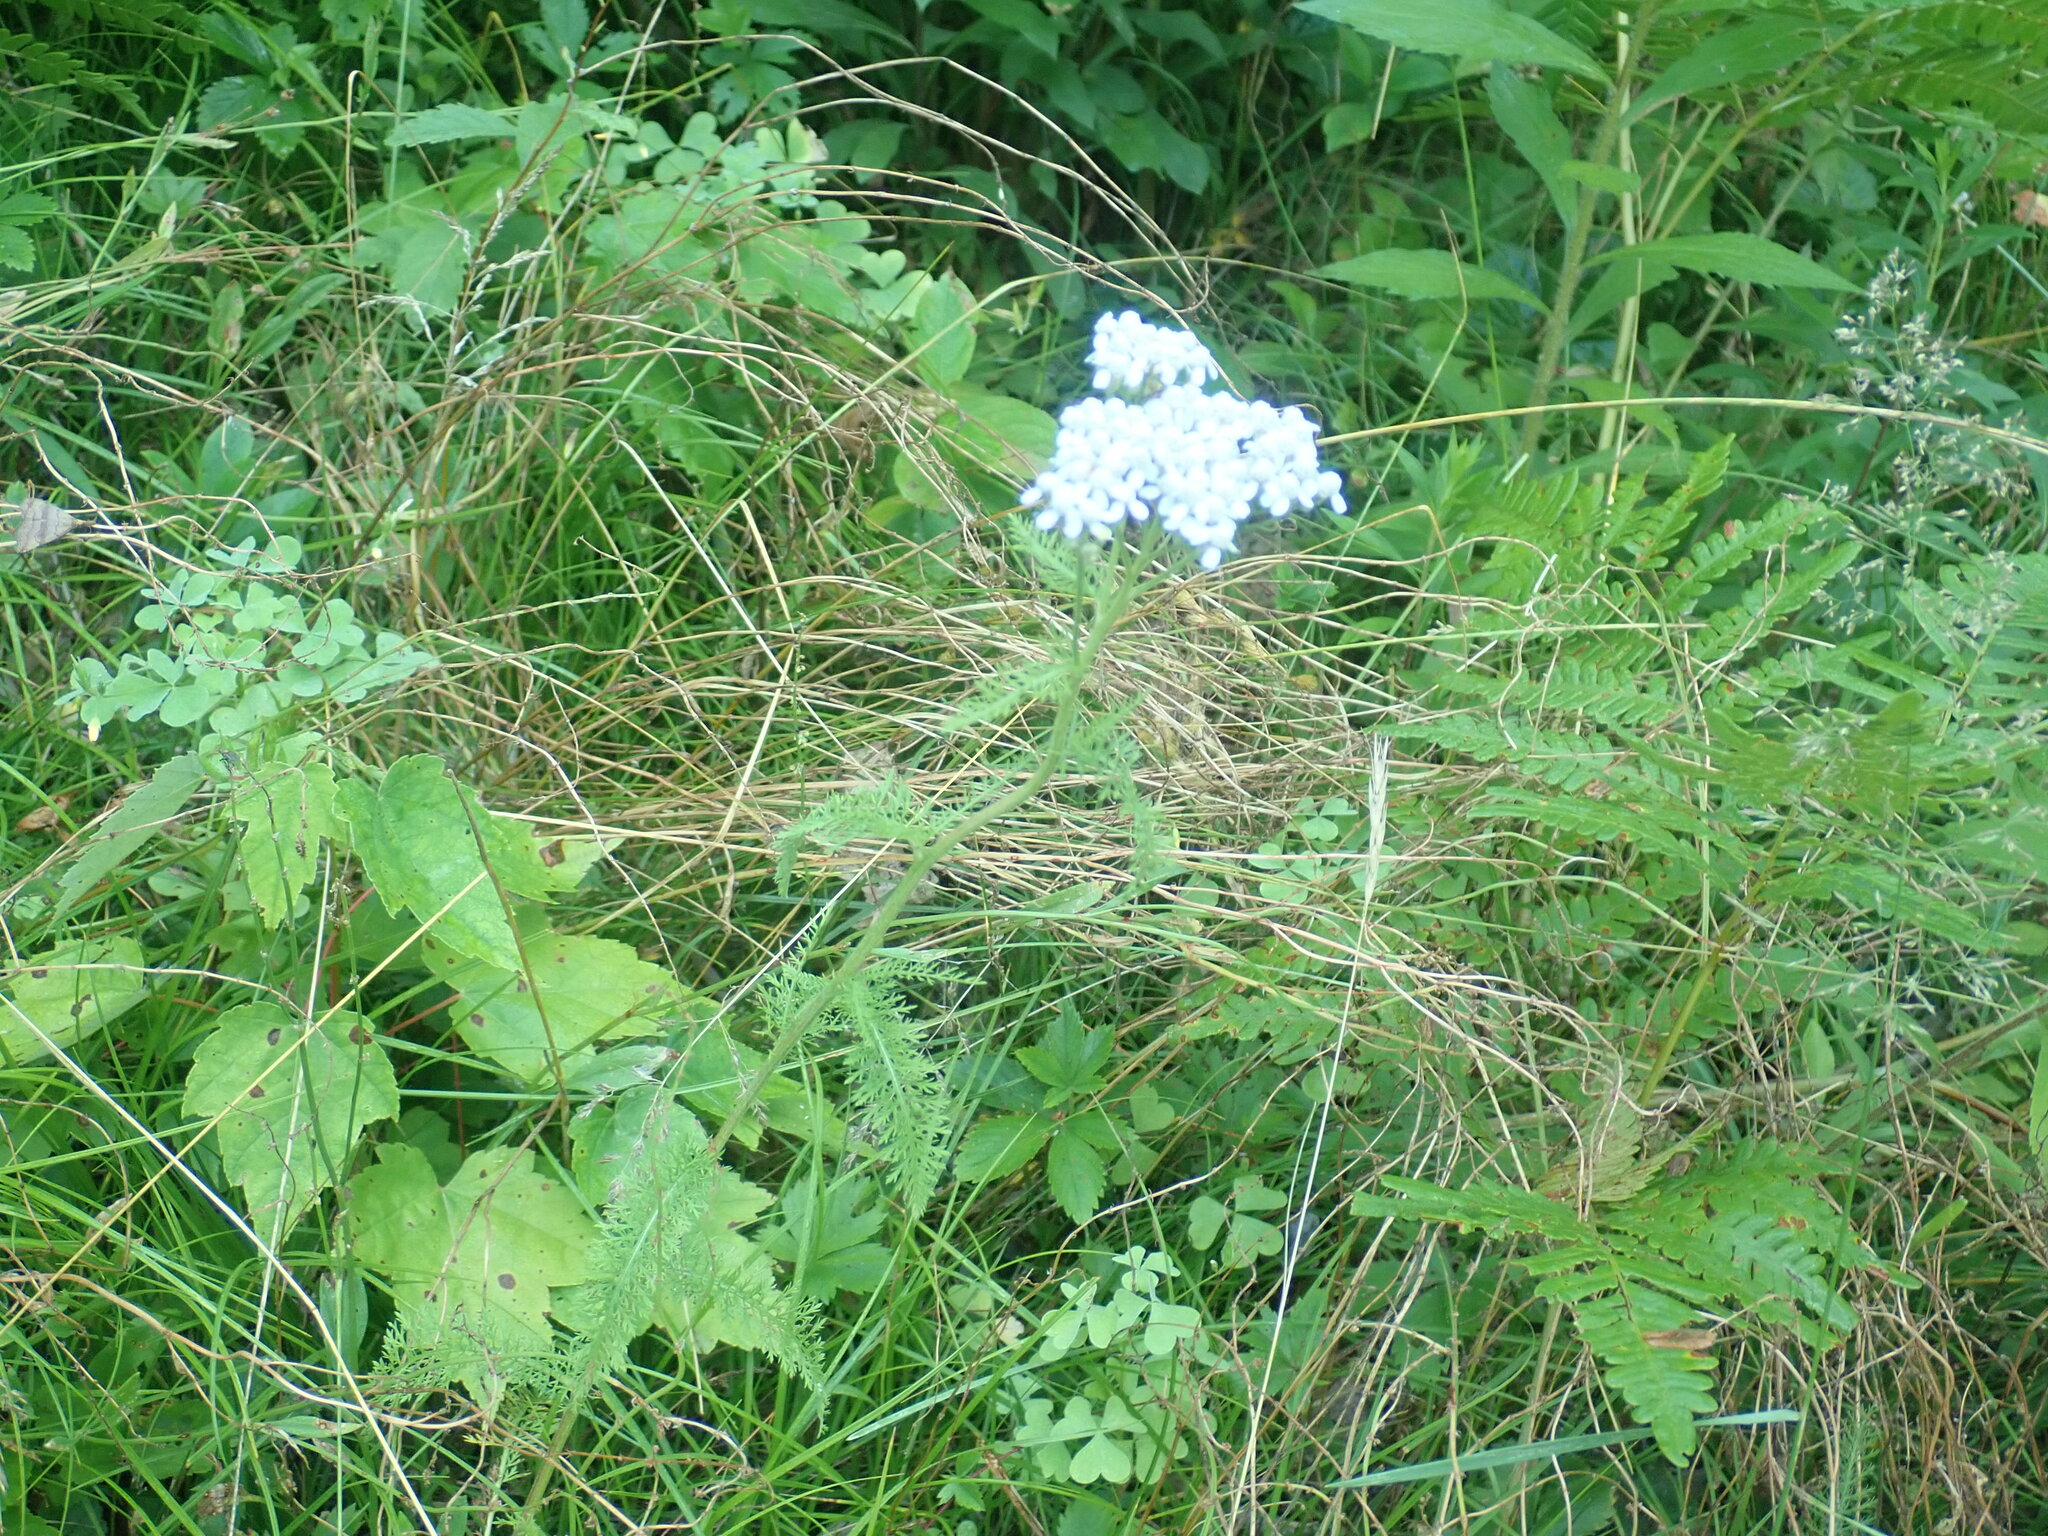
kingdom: Plantae
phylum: Tracheophyta
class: Magnoliopsida
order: Asterales
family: Asteraceae
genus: Achillea
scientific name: Achillea millefolium
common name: Yarrow
